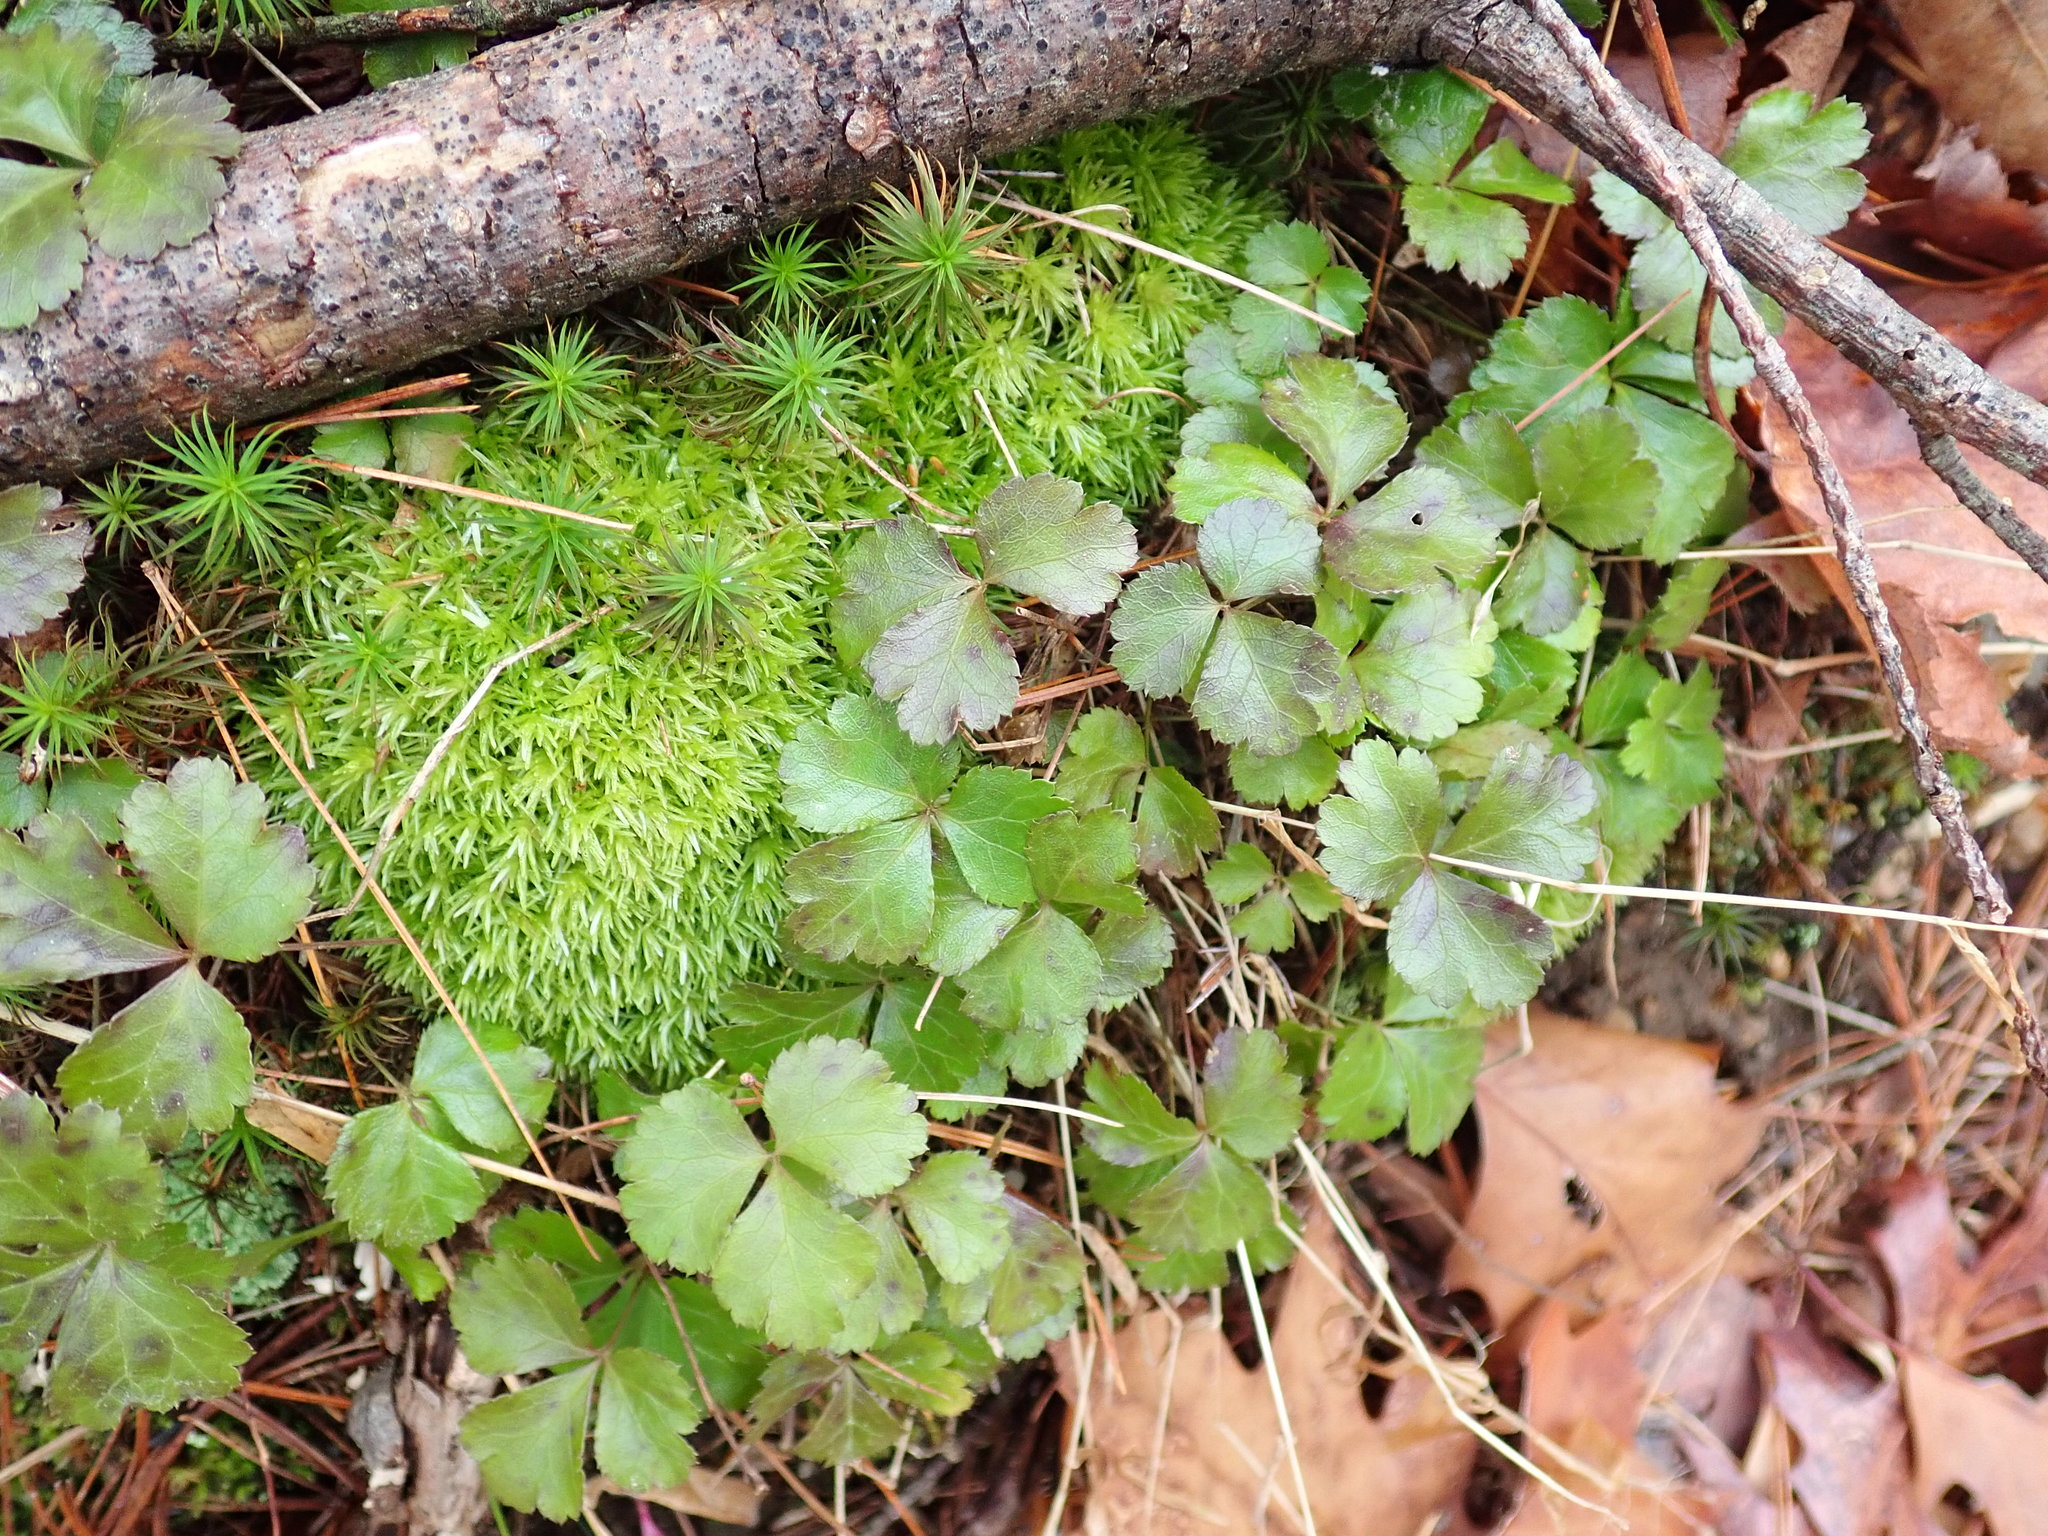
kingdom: Plantae
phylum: Tracheophyta
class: Magnoliopsida
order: Ranunculales
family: Ranunculaceae
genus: Coptis
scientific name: Coptis trifolia
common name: Canker-root
